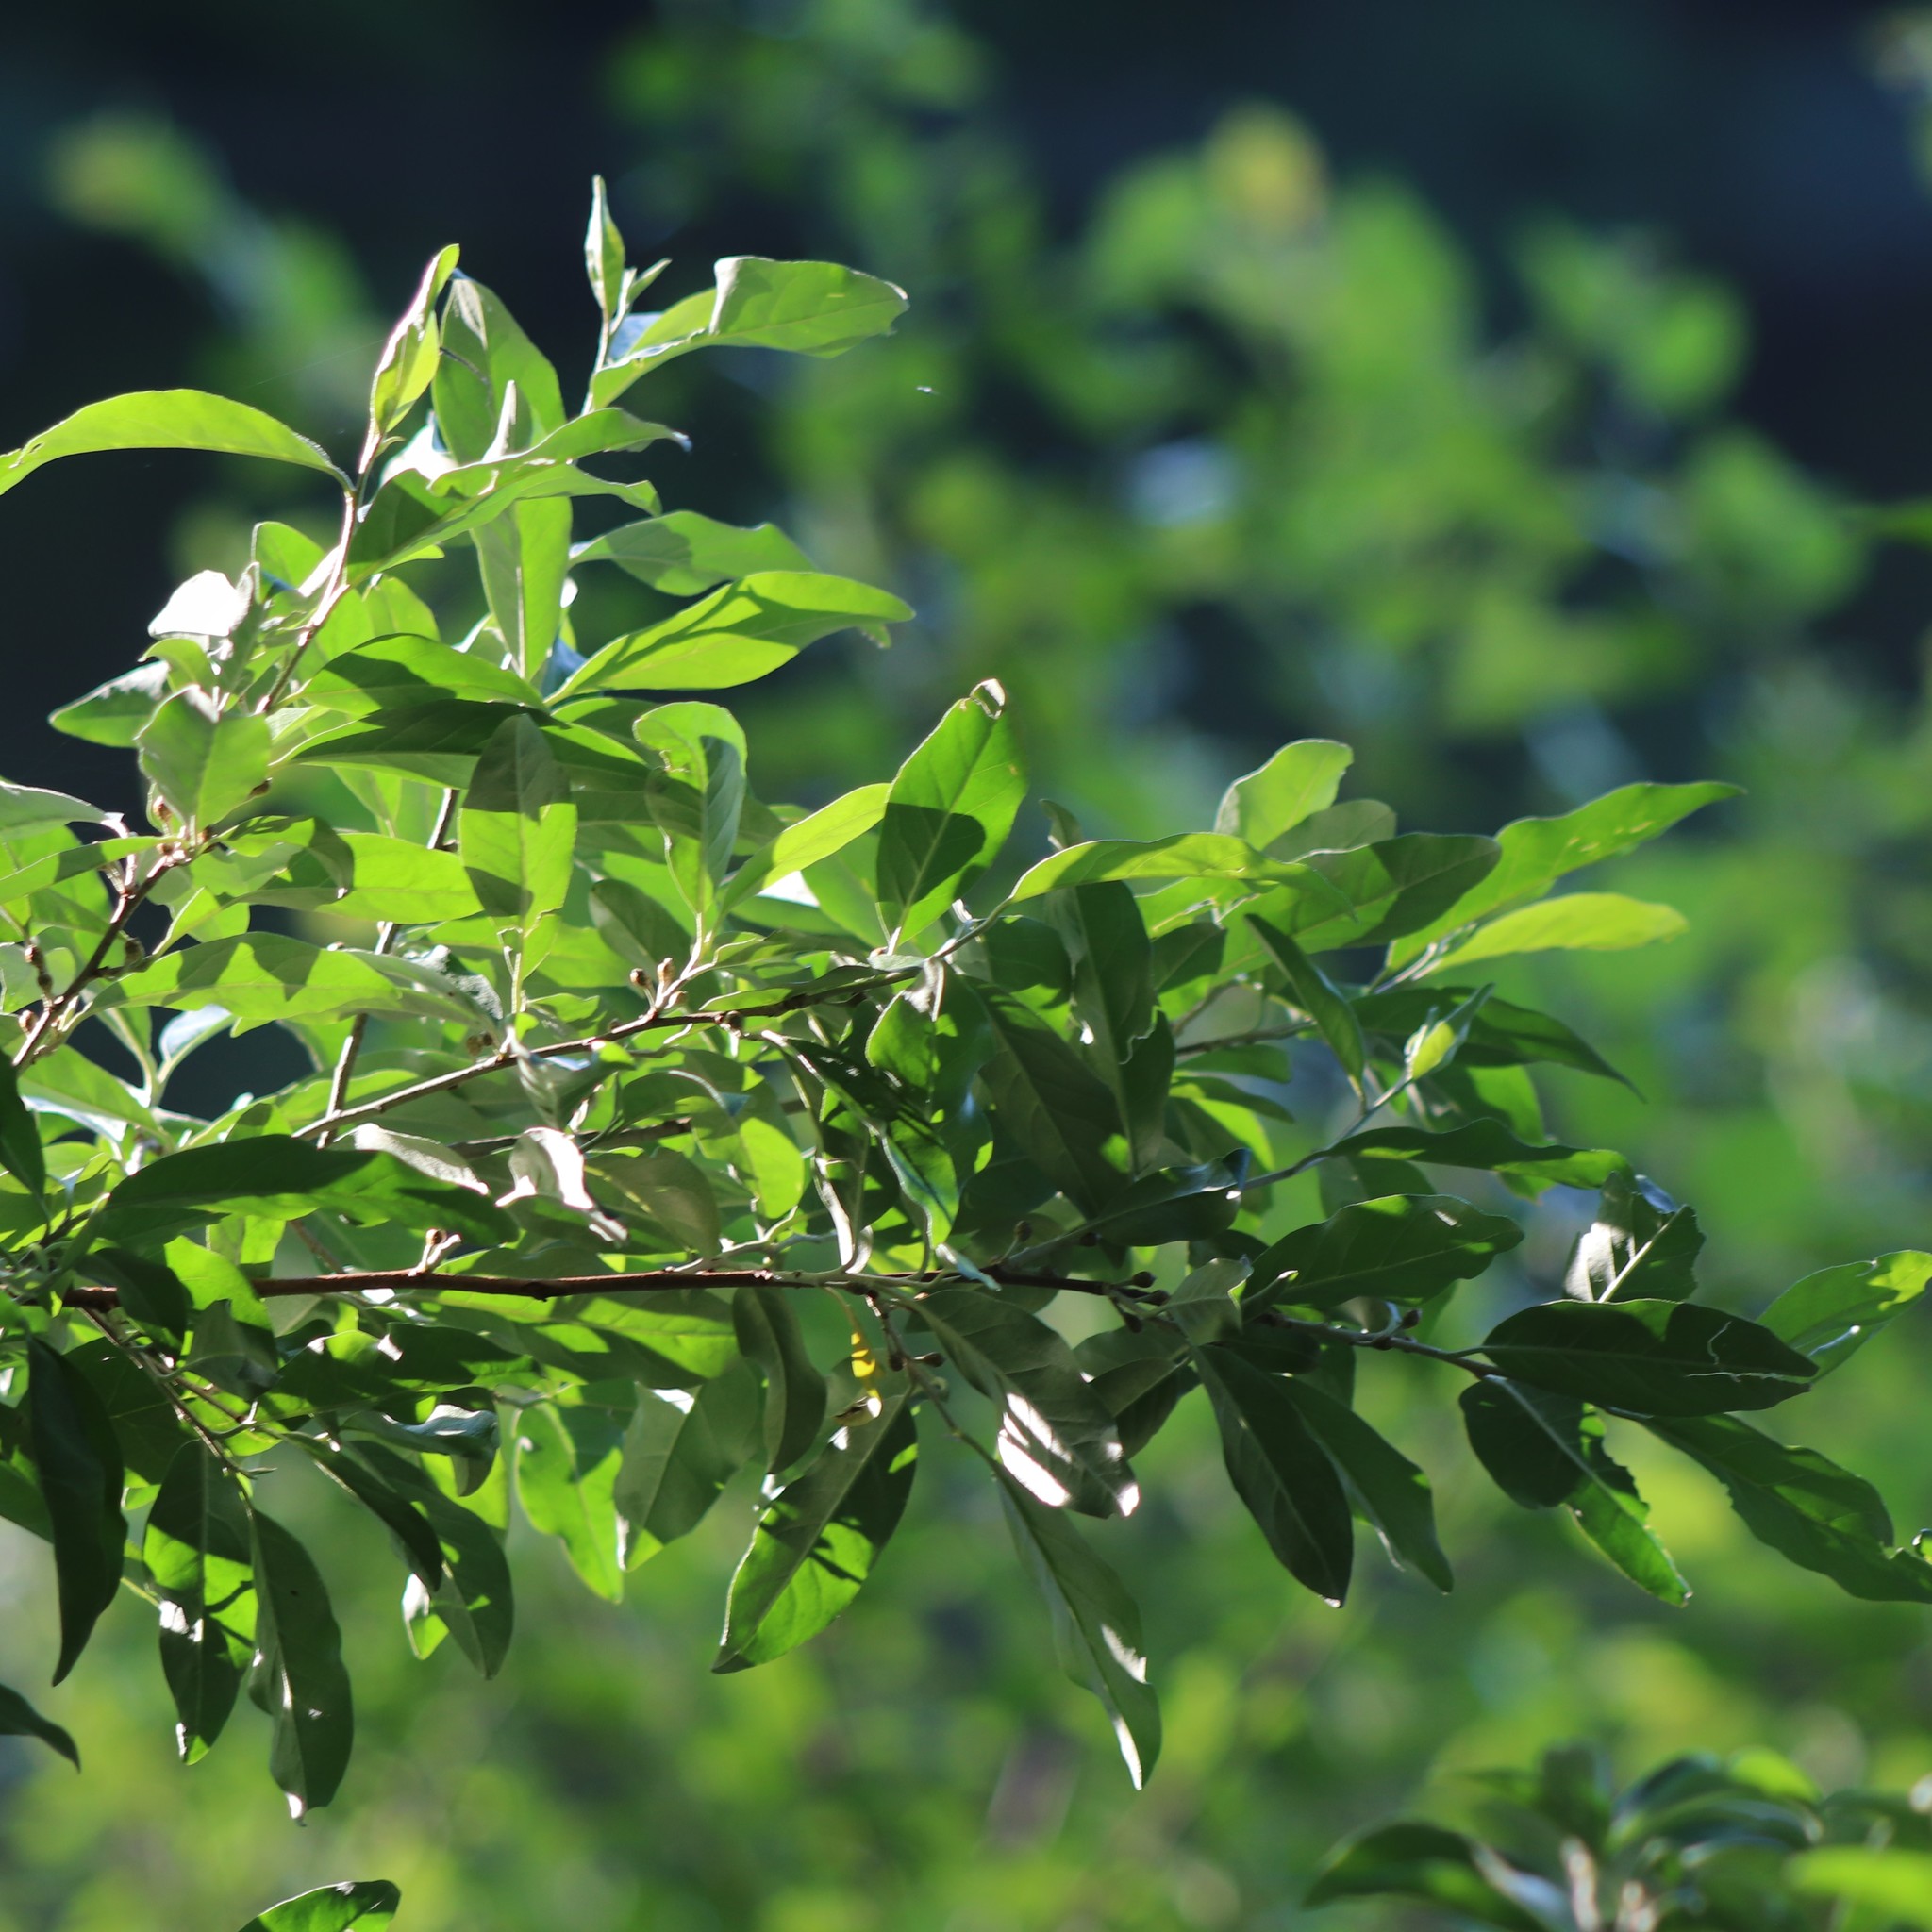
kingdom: Plantae
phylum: Tracheophyta
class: Magnoliopsida
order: Rosales
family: Elaeagnaceae
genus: Elaeagnus
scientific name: Elaeagnus umbellata
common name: Autumn olive
